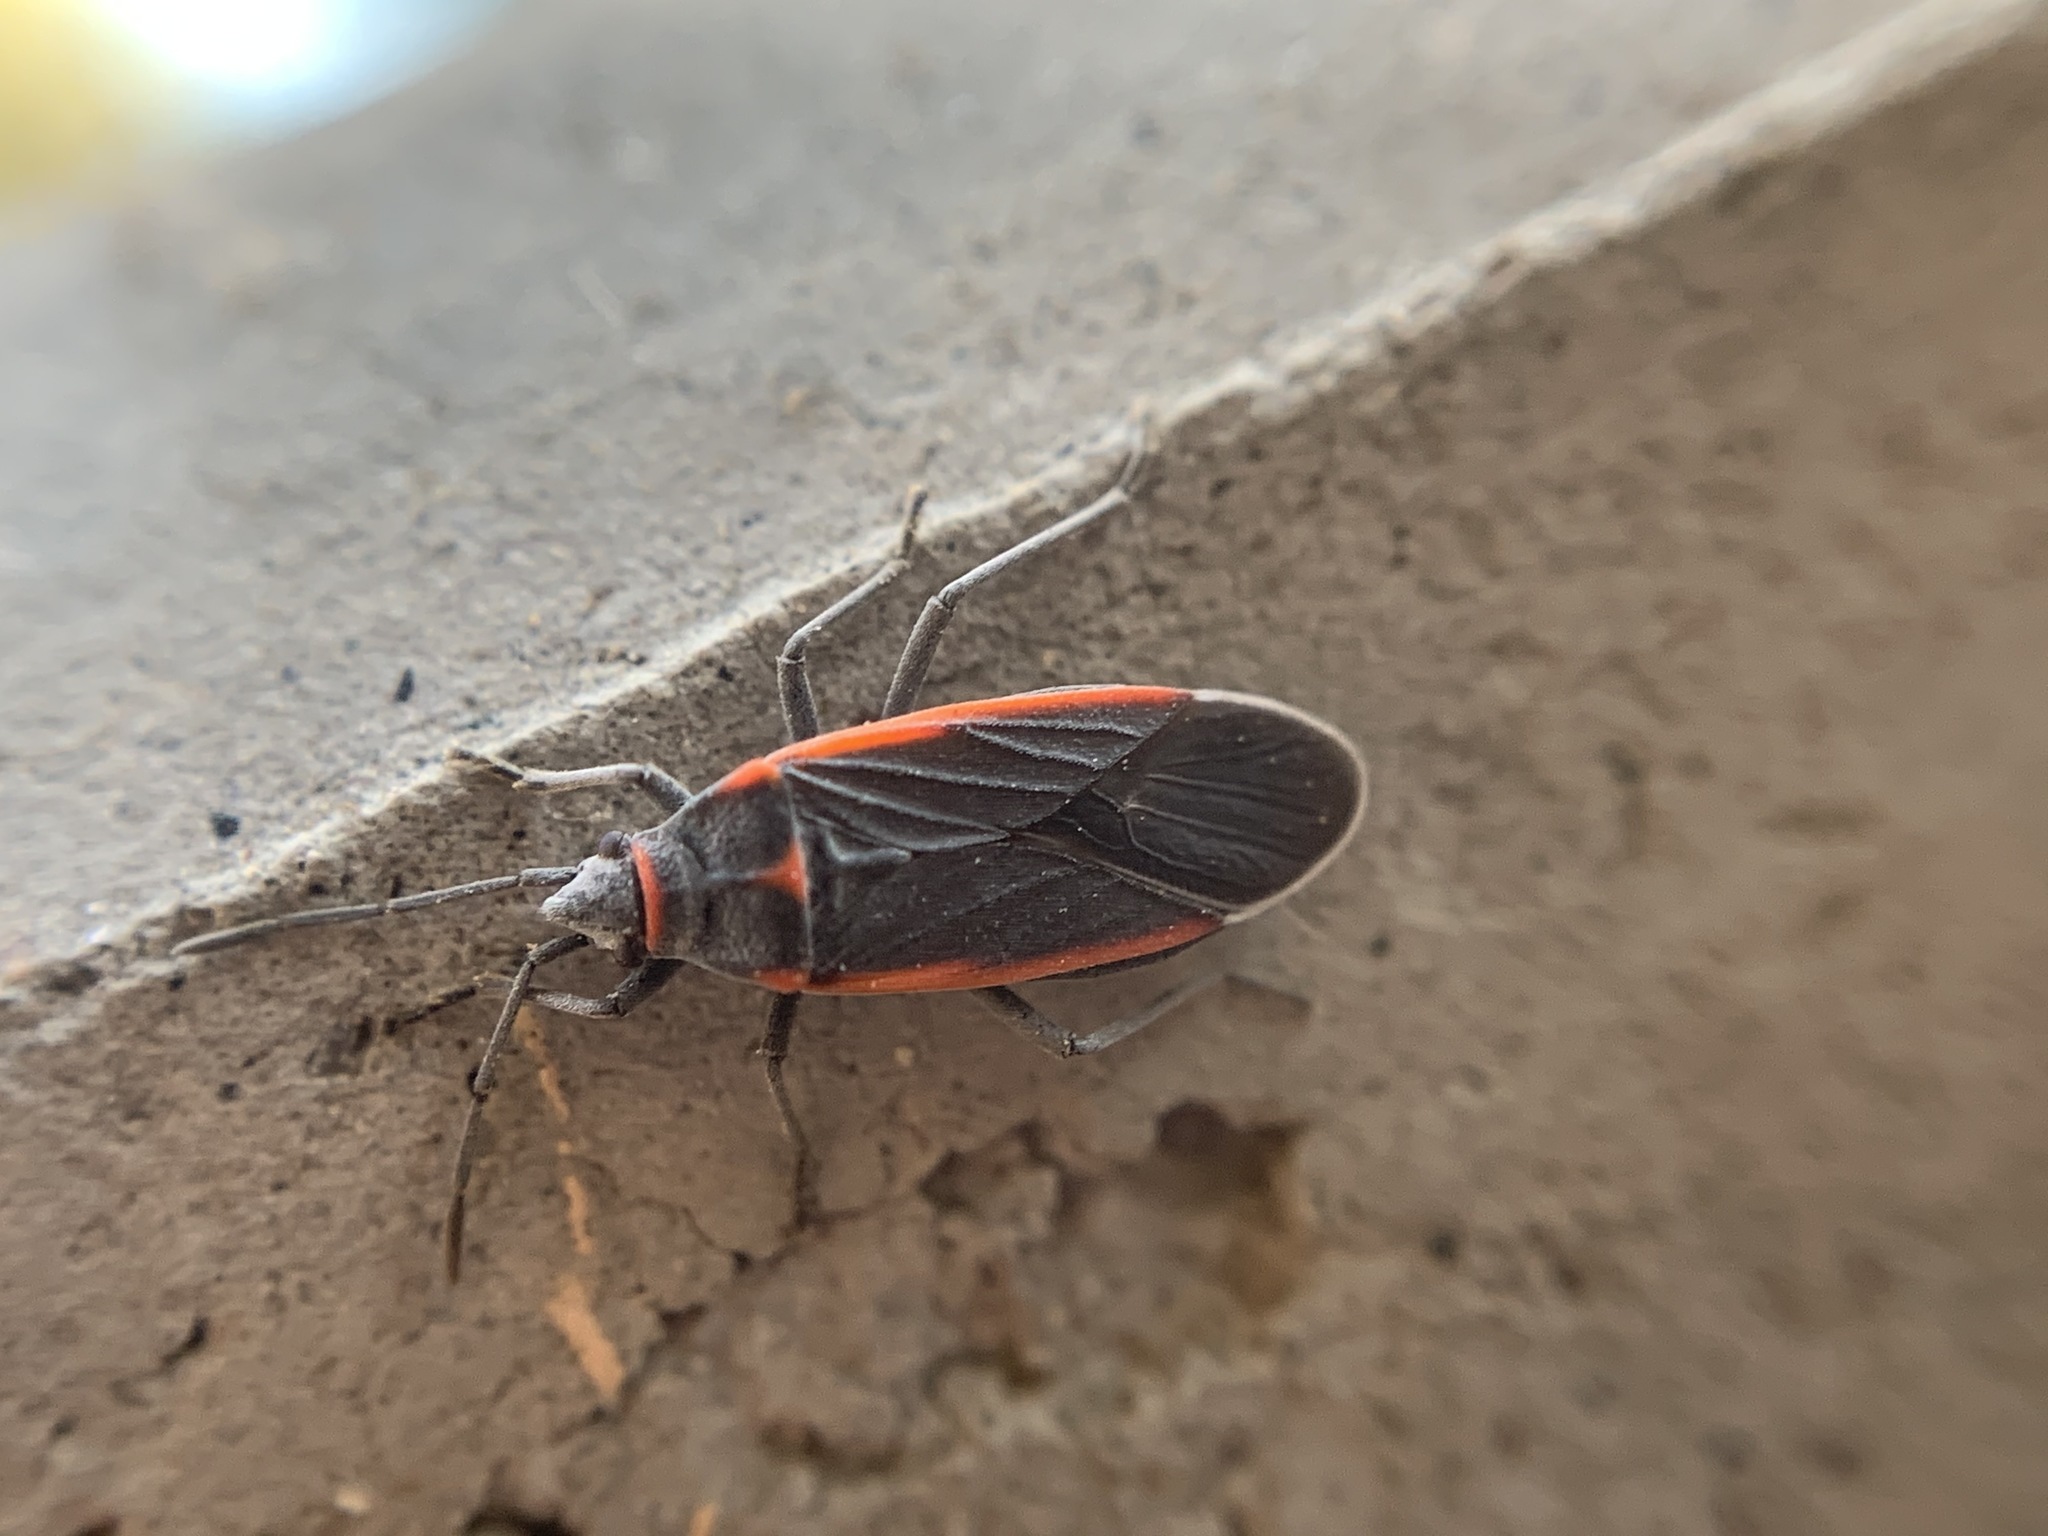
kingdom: Animalia
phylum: Arthropoda
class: Insecta
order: Hemiptera
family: Lygaeidae
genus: Melacoryphus
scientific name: Melacoryphus lateralis
